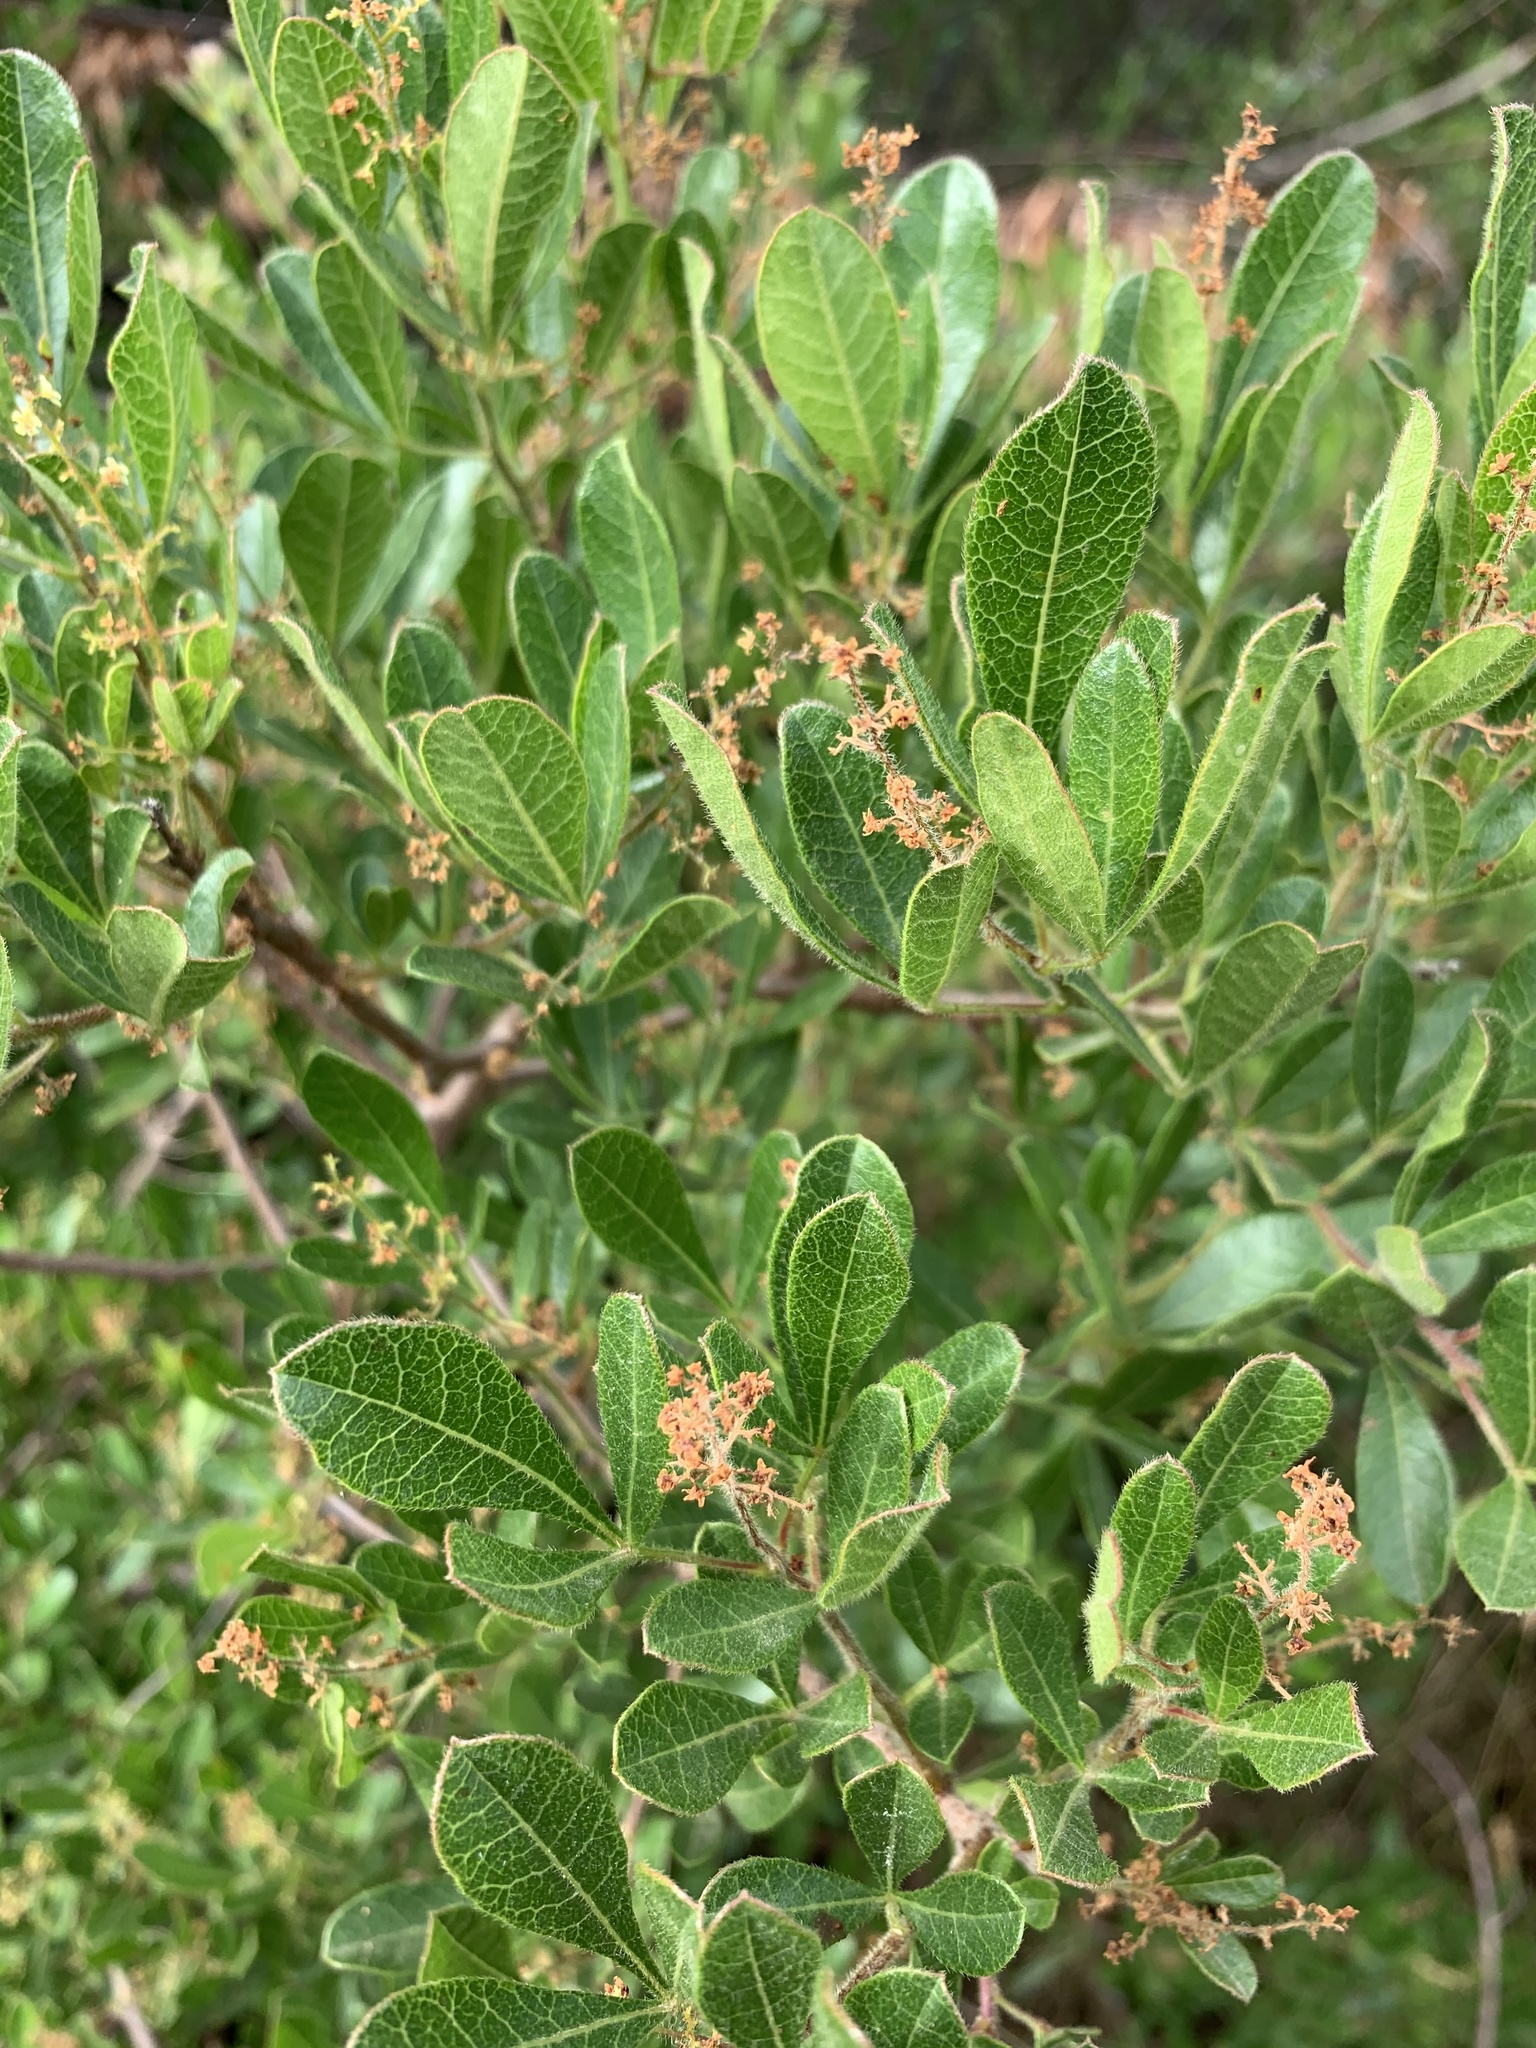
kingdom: Plantae
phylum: Tracheophyta
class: Magnoliopsida
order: Sapindales
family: Anacardiaceae
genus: Searsia
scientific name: Searsia laevigata
